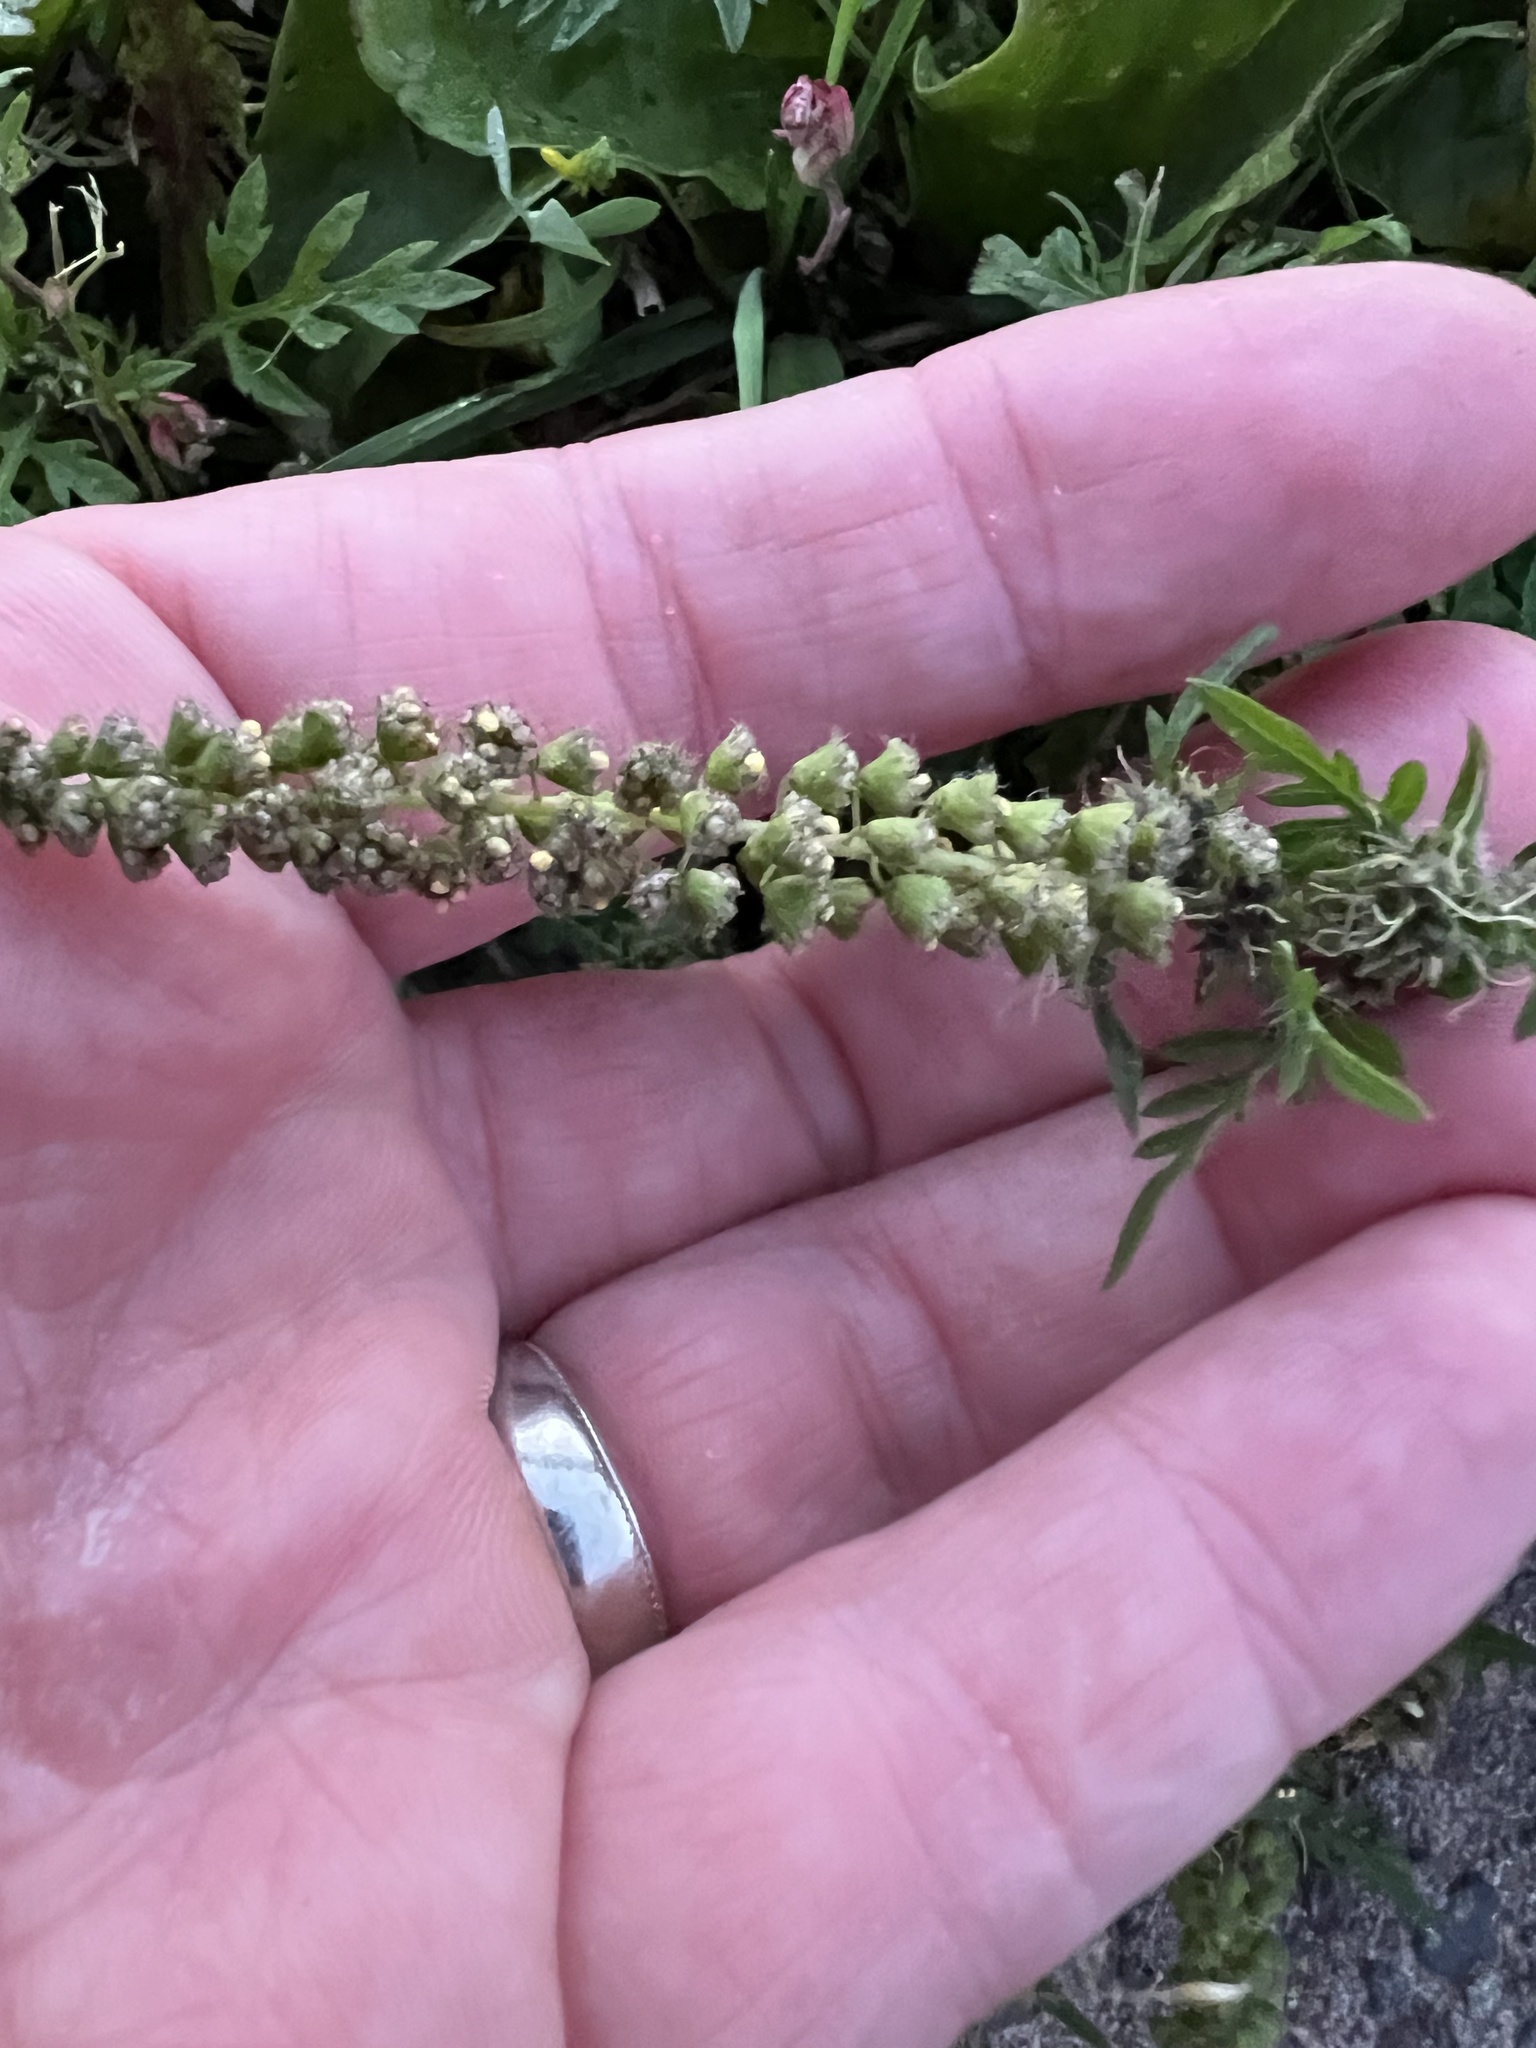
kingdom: Plantae
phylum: Tracheophyta
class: Magnoliopsida
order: Asterales
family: Asteraceae
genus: Ambrosia
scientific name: Ambrosia artemisiifolia
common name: Annual ragweed
